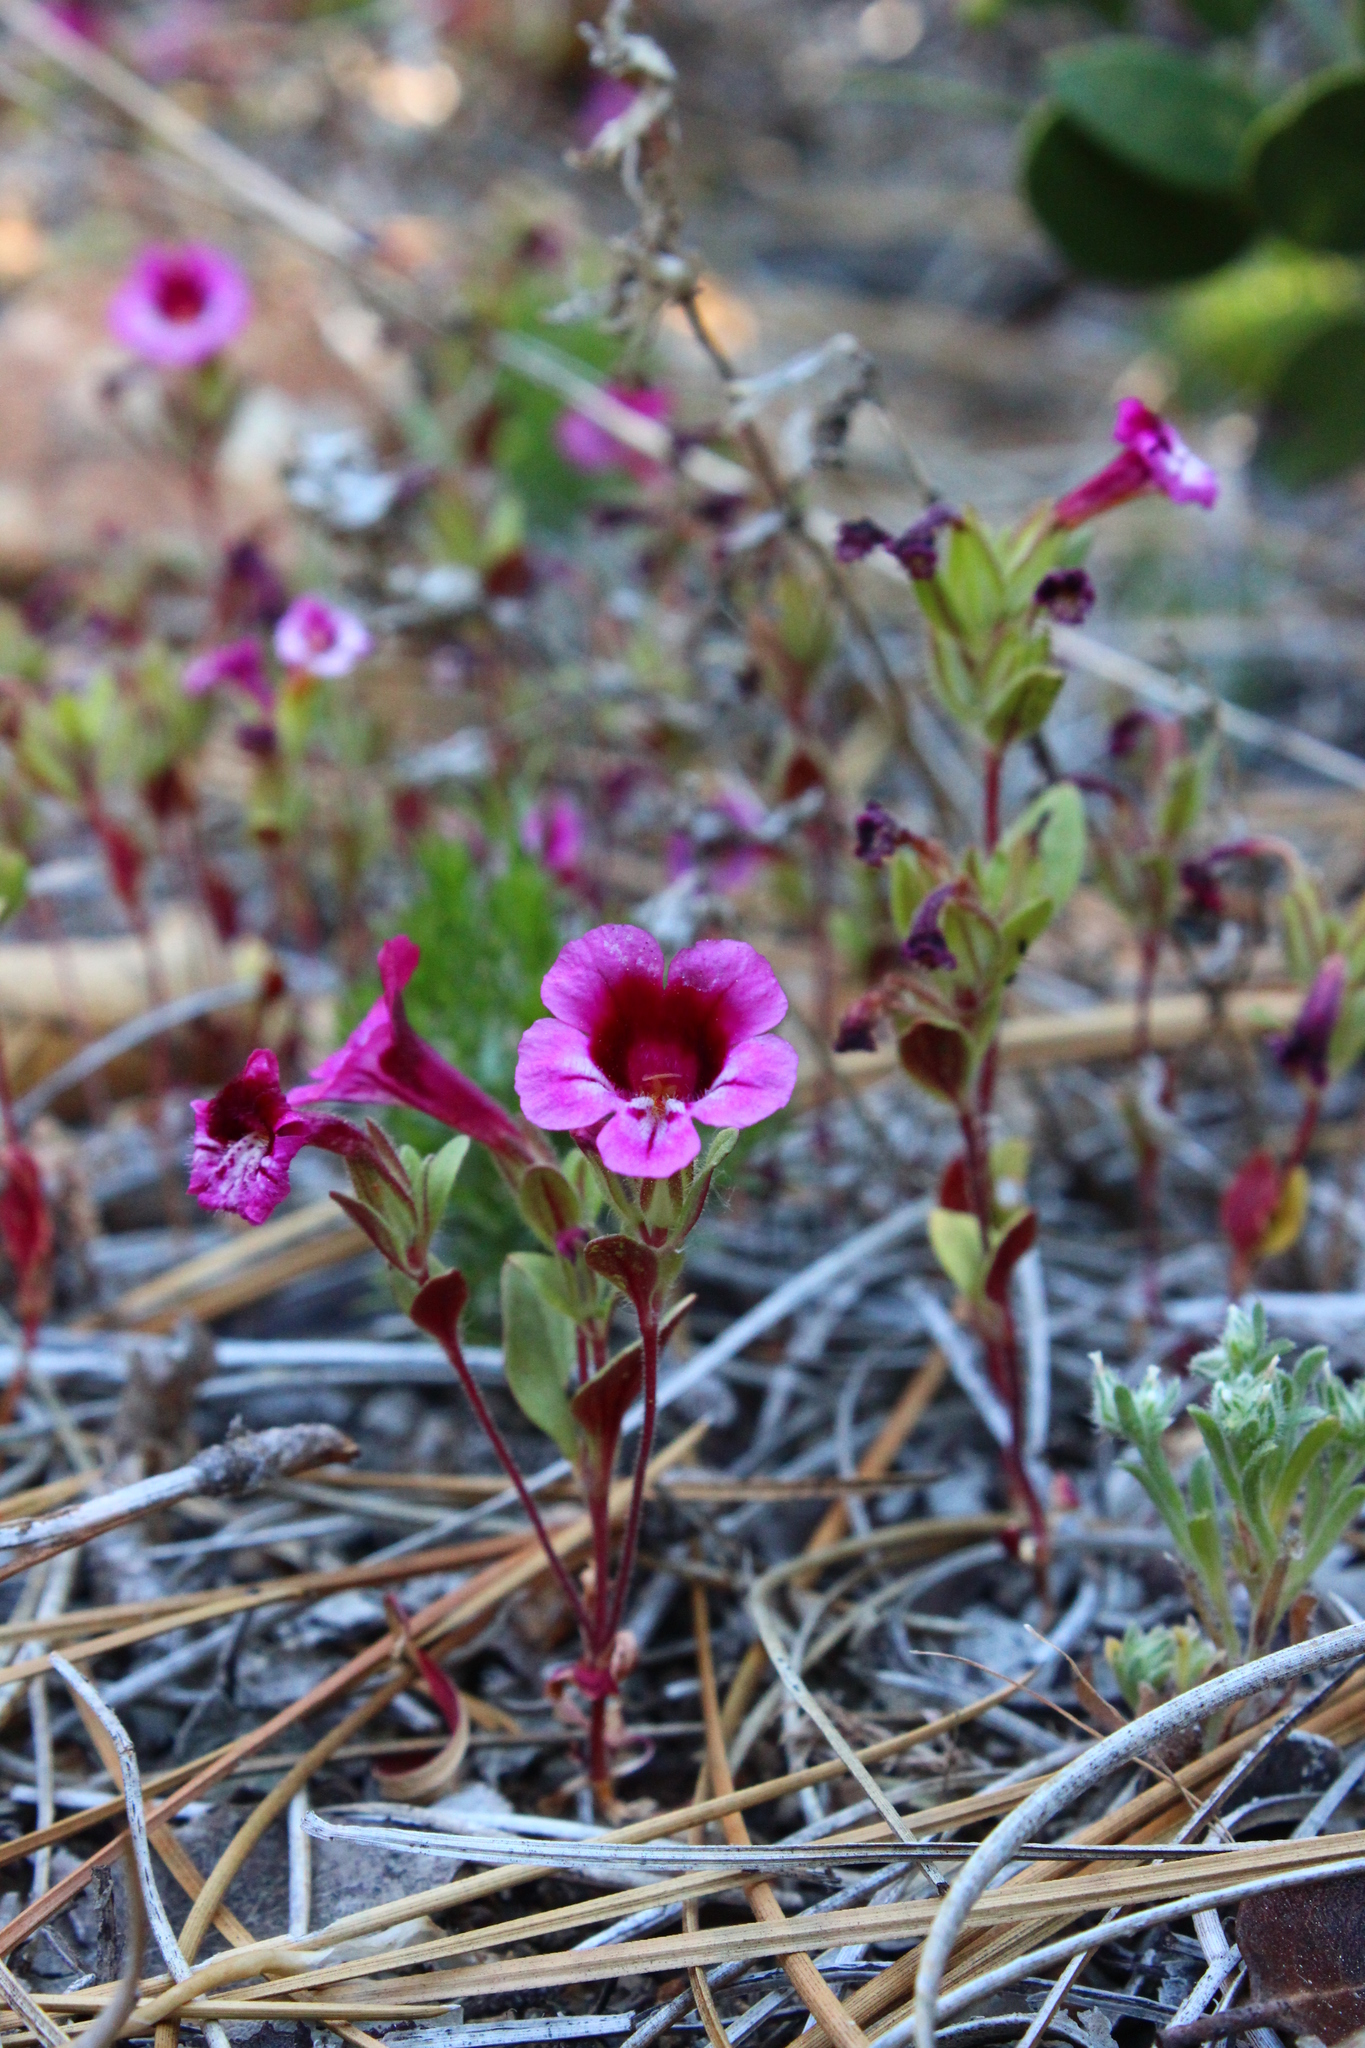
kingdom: Plantae
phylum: Tracheophyta
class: Magnoliopsida
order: Lamiales
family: Phrymaceae
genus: Diplacus
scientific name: Diplacus constrictus
